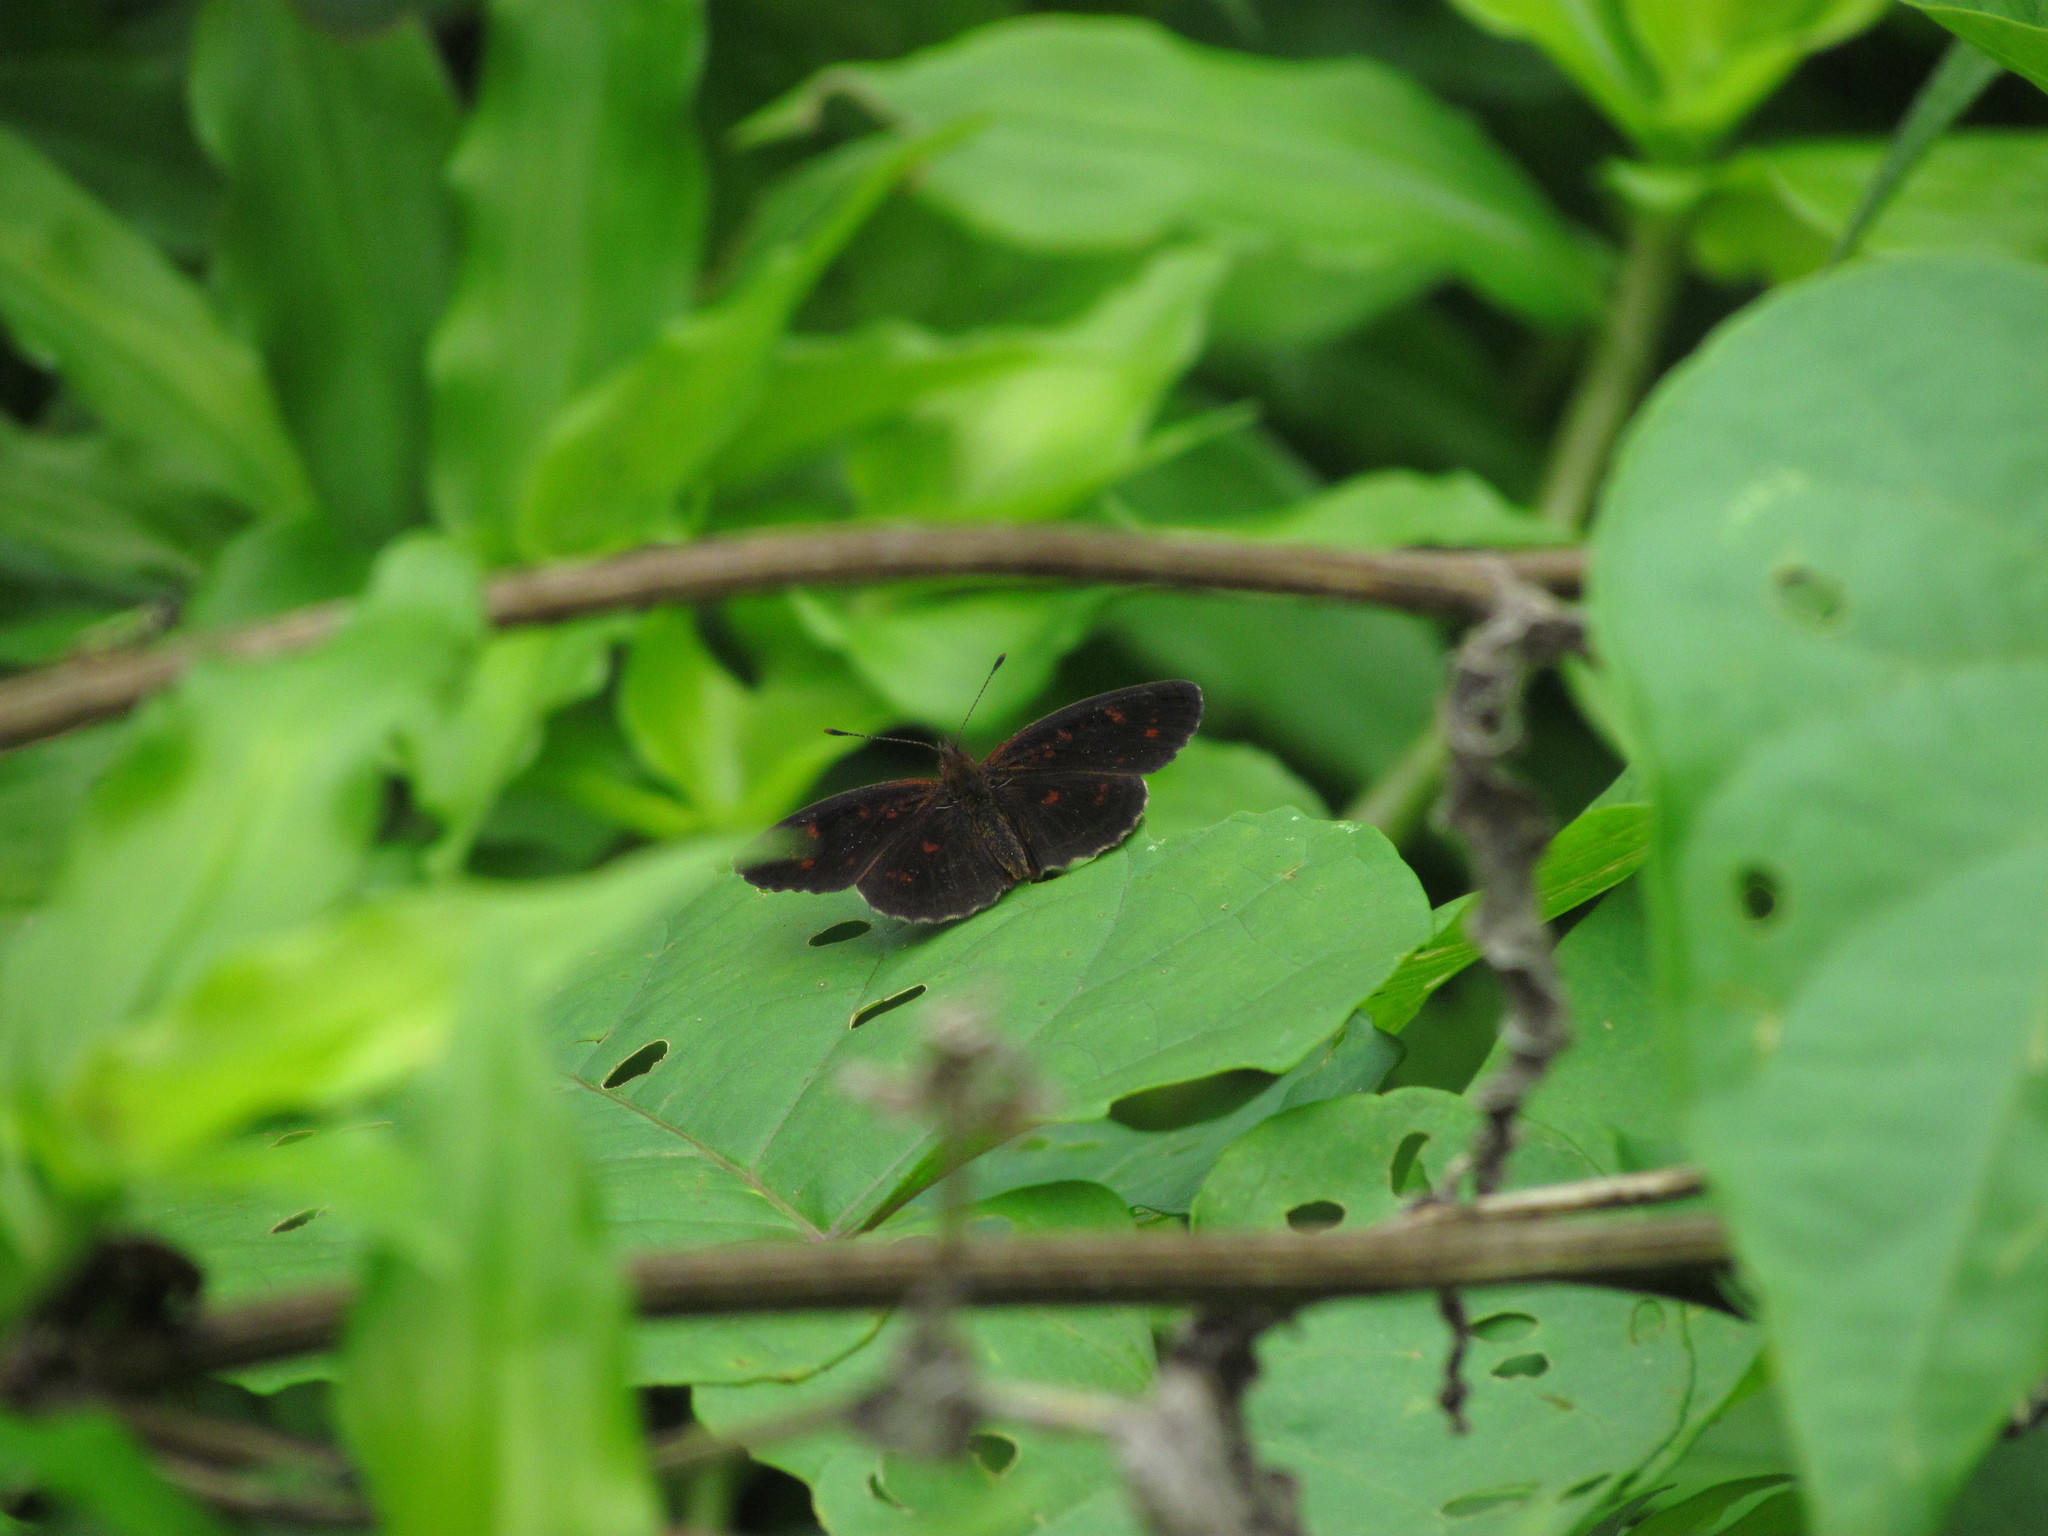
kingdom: Animalia
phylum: Arthropoda
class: Insecta
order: Lepidoptera
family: Nymphalidae
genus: Ortilia
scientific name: Ortilia velica
